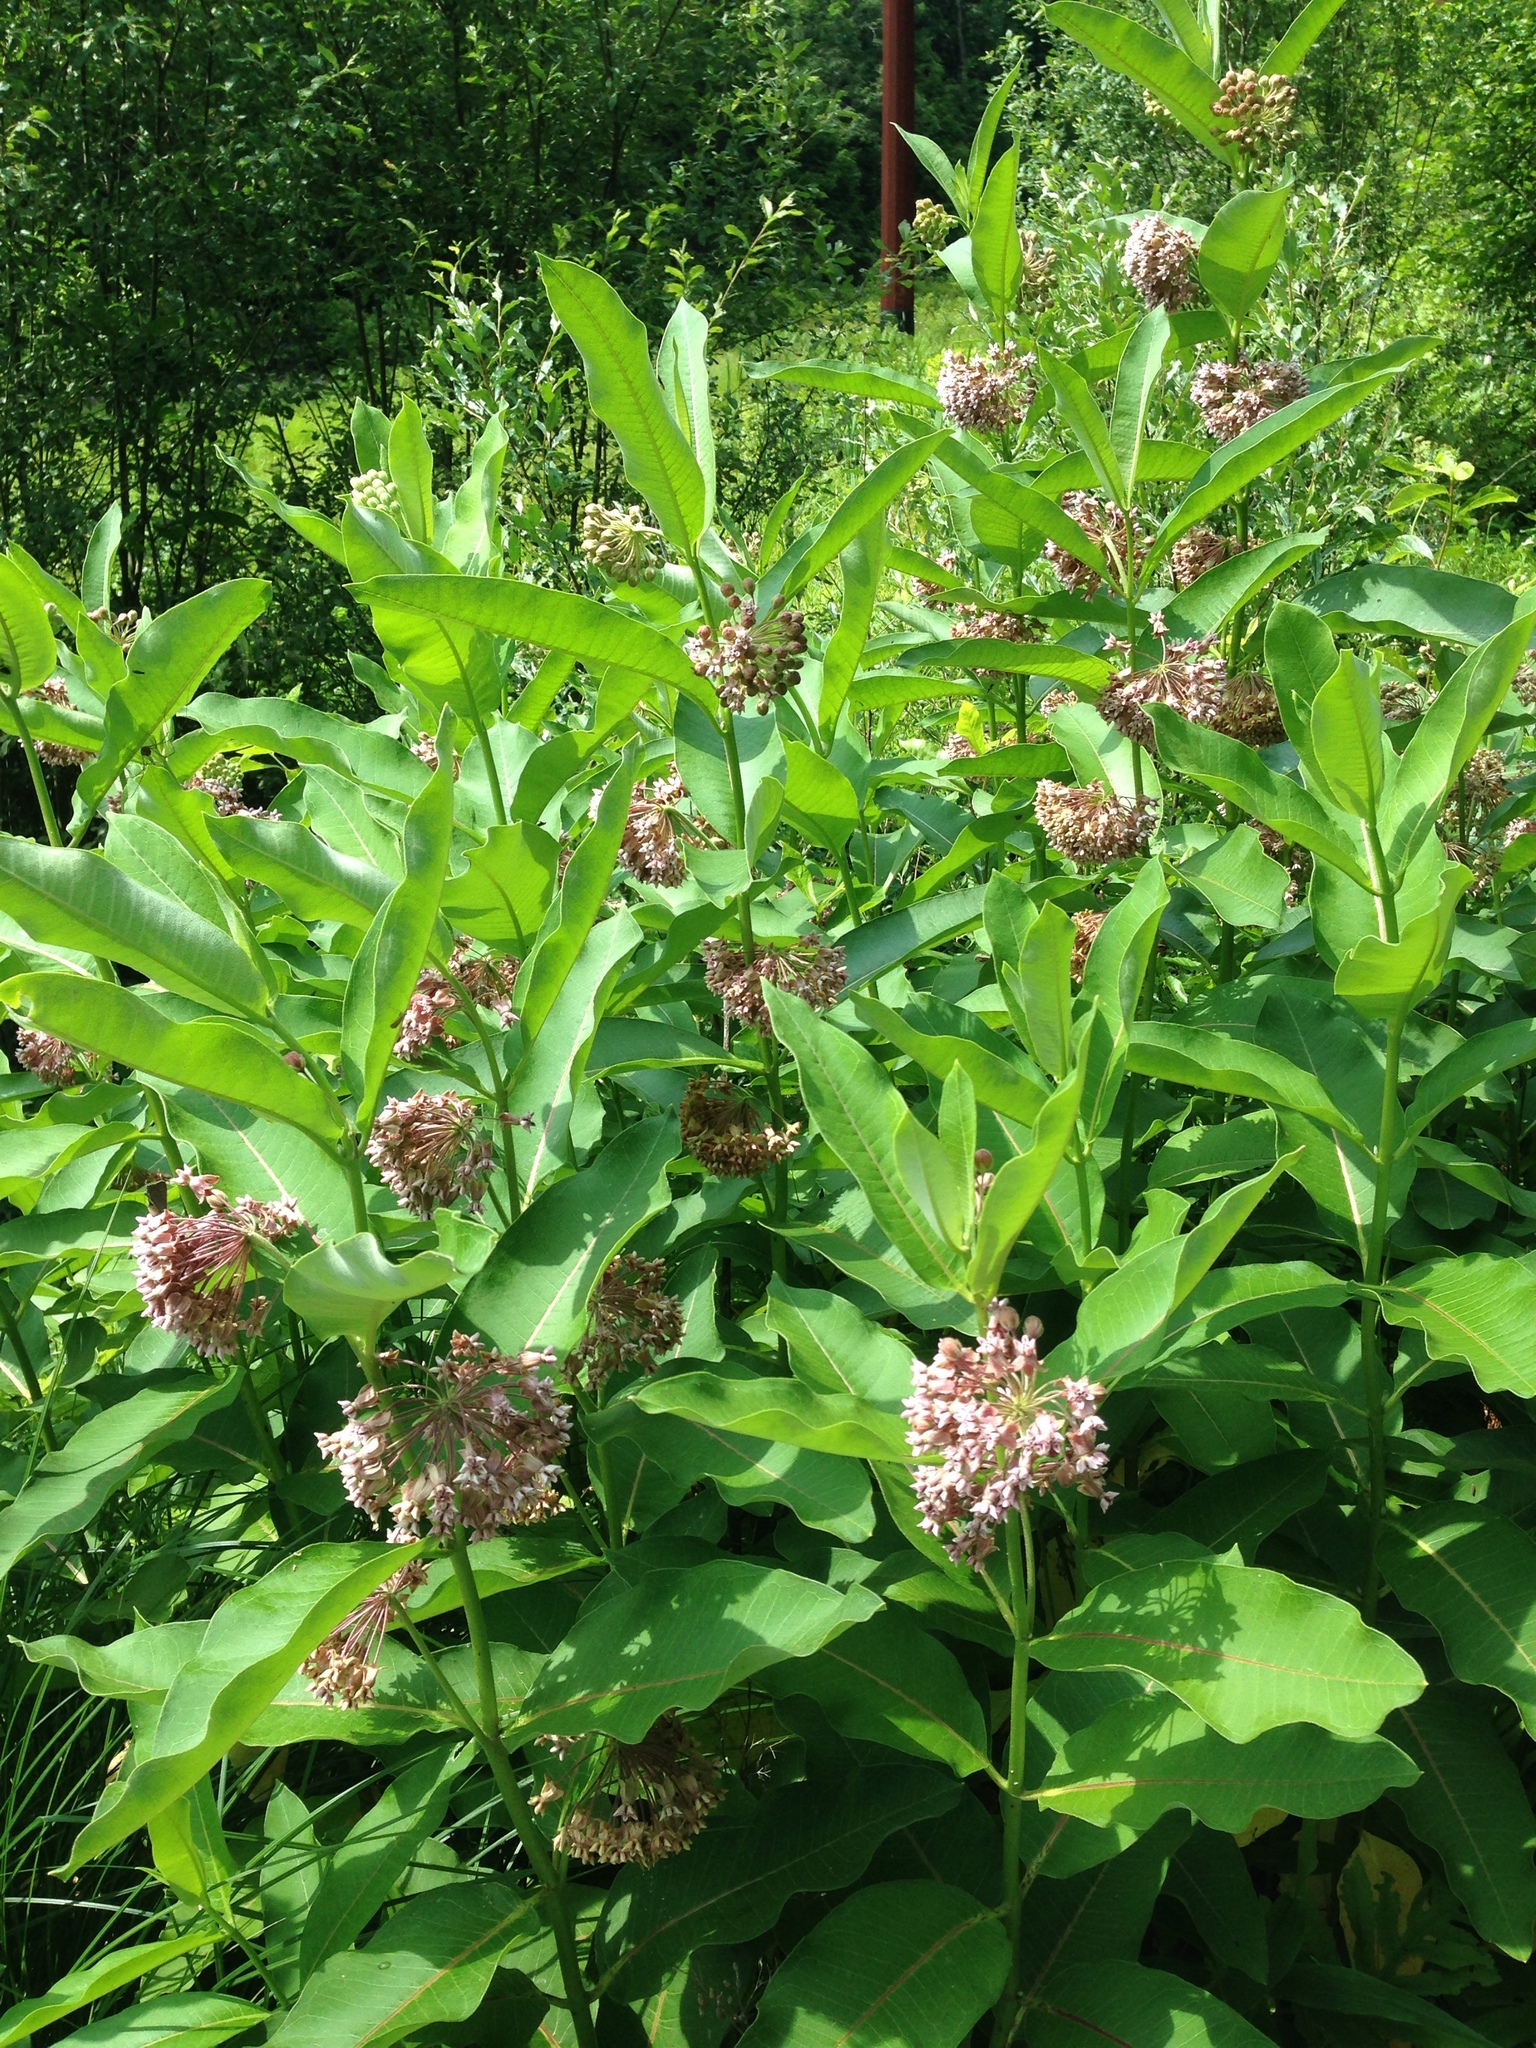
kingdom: Plantae
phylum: Tracheophyta
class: Magnoliopsida
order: Gentianales
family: Apocynaceae
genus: Asclepias
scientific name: Asclepias syriaca
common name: Common milkweed
